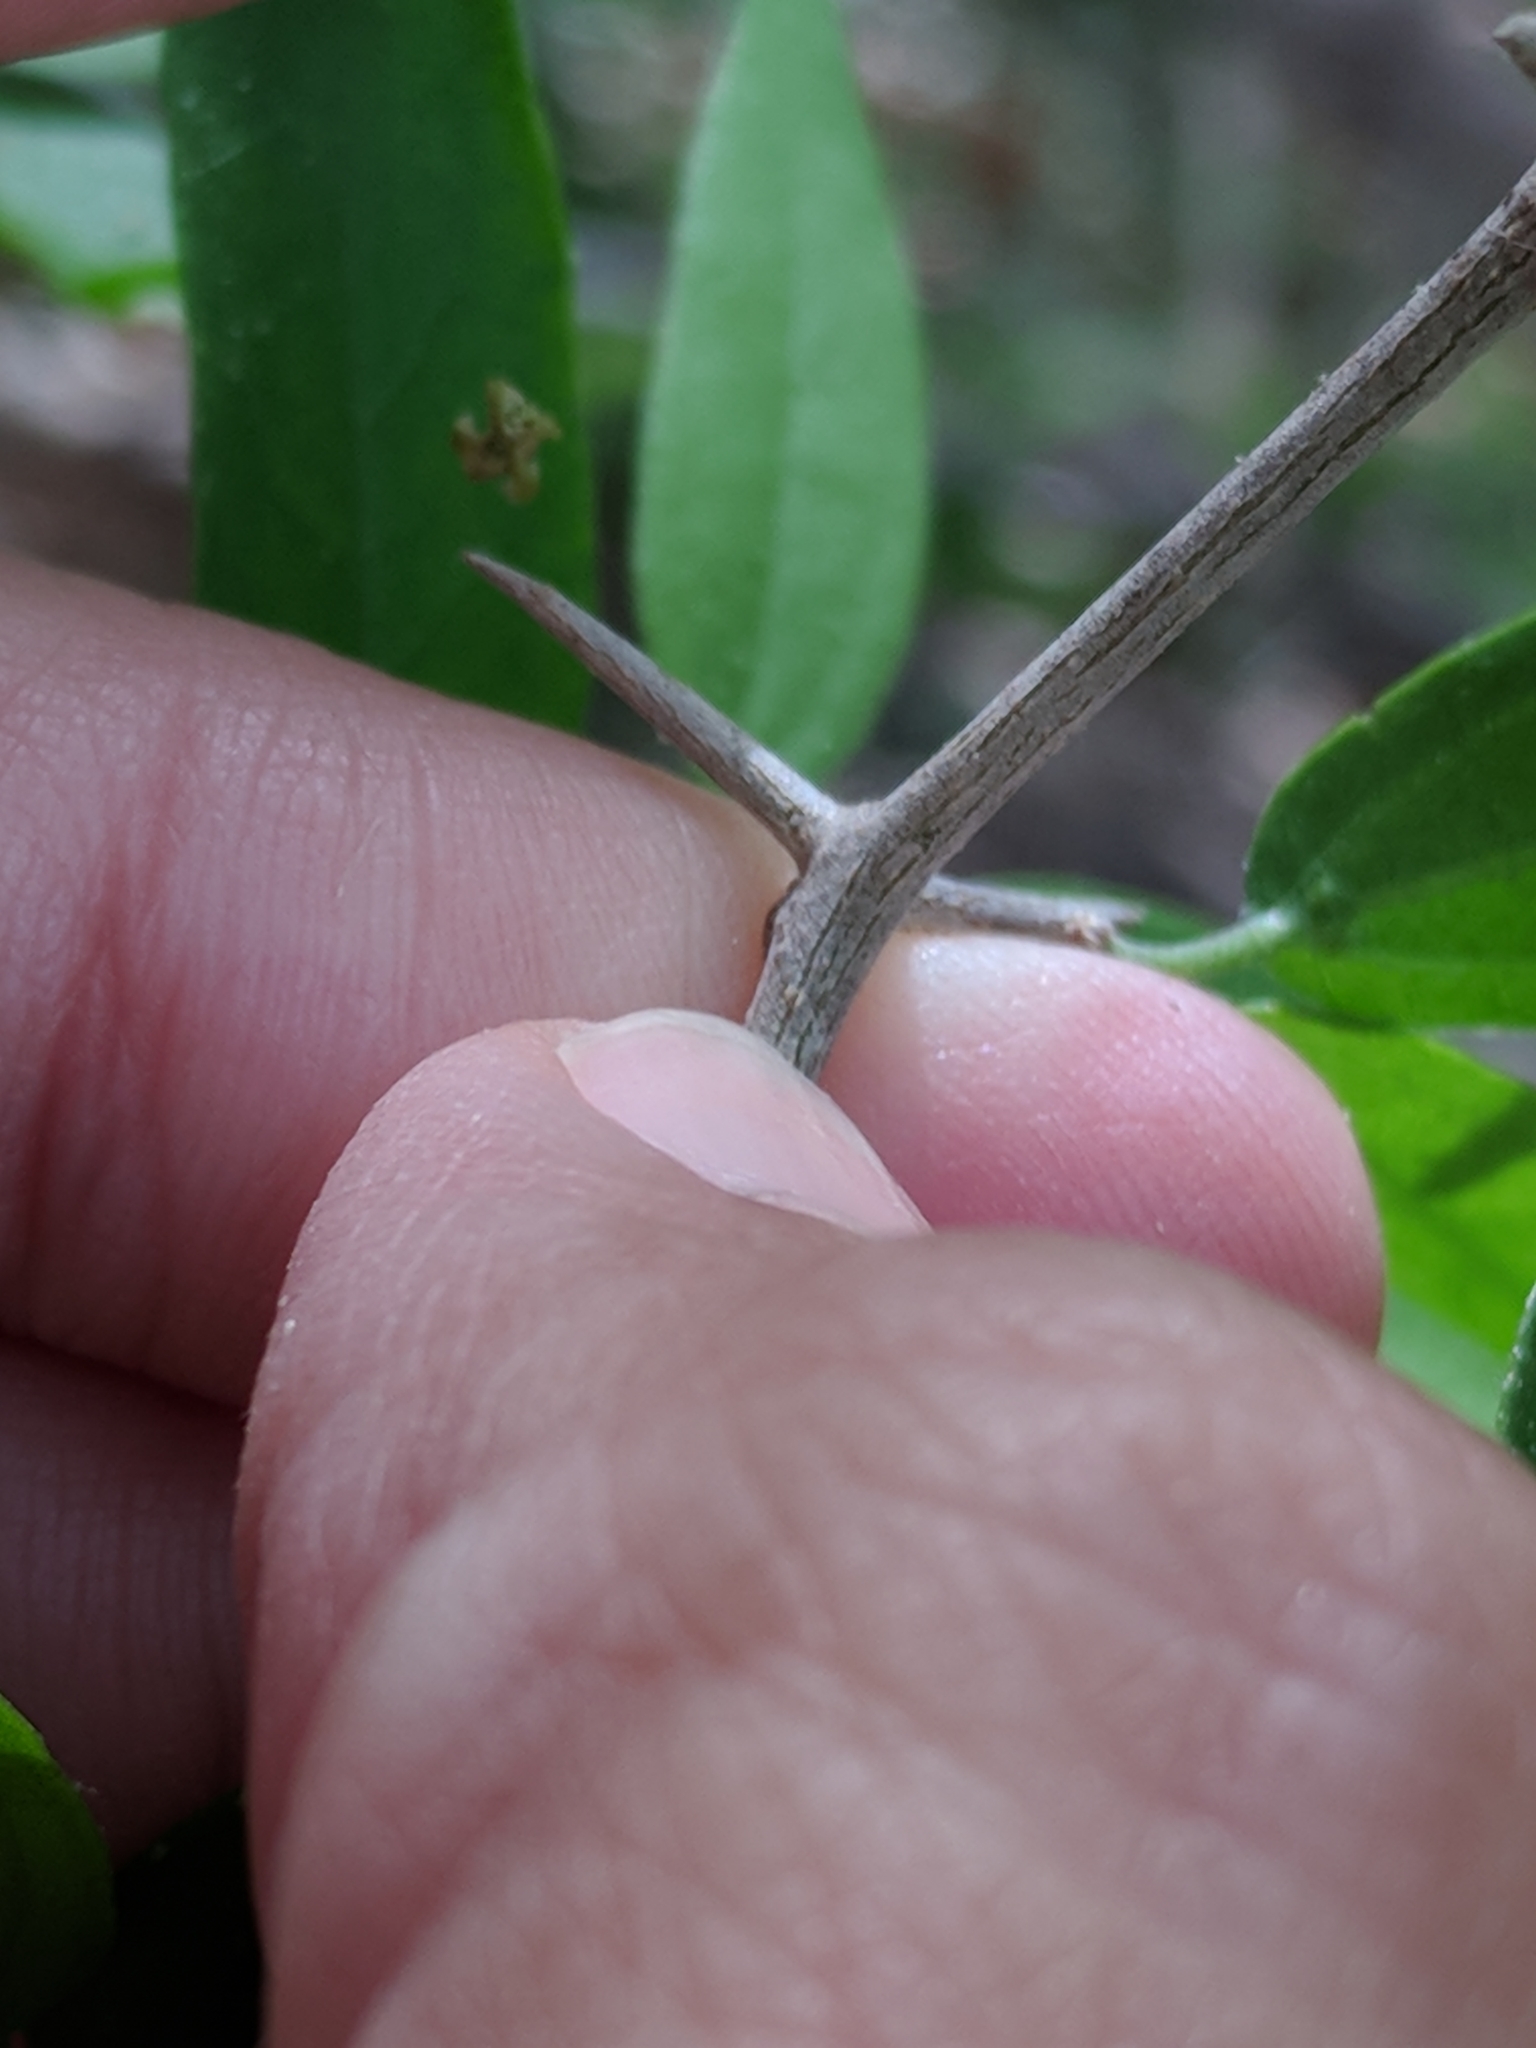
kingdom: Plantae
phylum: Tracheophyta
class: Magnoliopsida
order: Rosales
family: Cannabaceae
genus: Celtis
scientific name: Celtis pallida
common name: Desert hackberry
